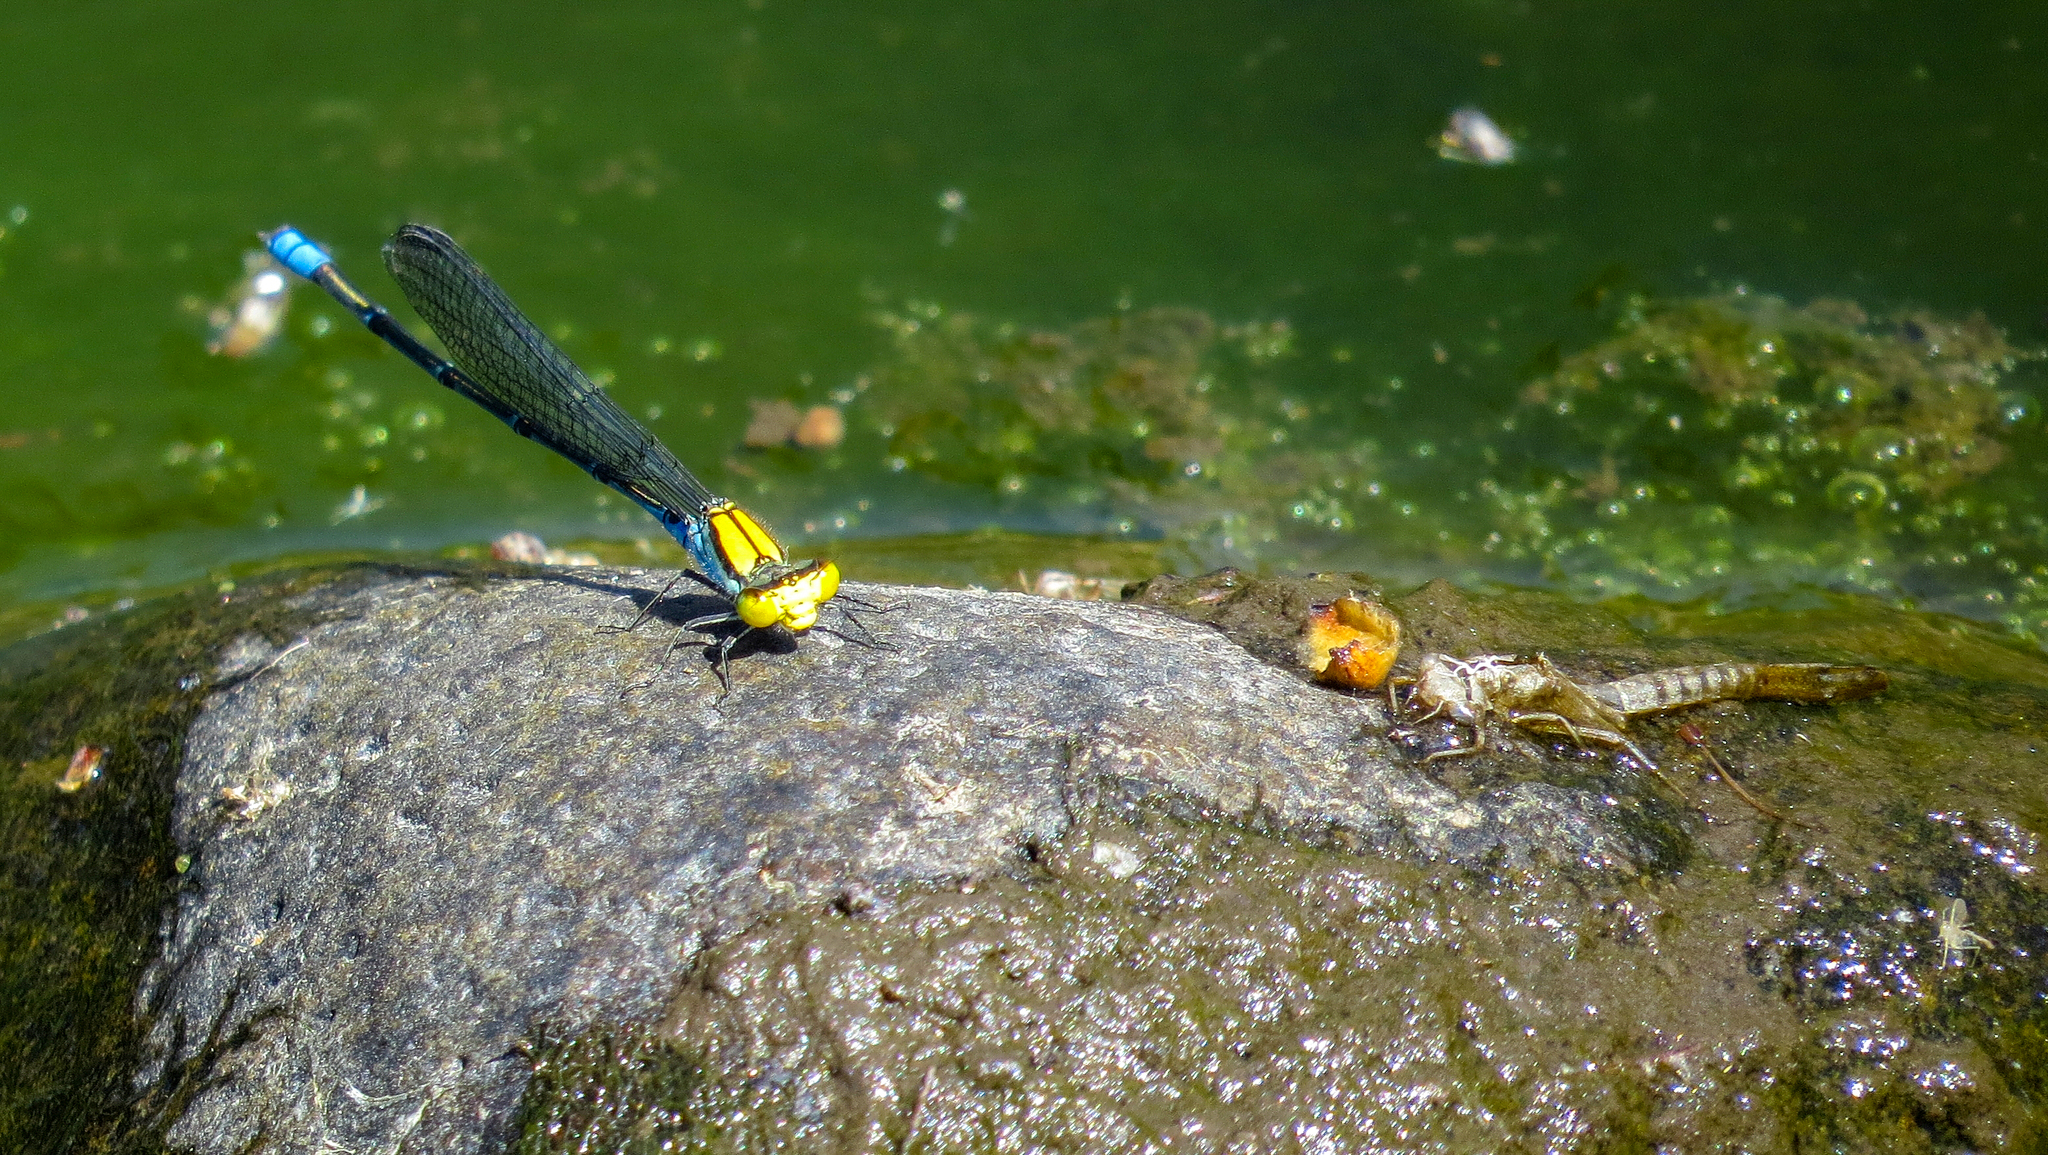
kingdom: Animalia
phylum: Arthropoda
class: Insecta
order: Odonata
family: Coenagrionidae
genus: Pseudagrion
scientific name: Pseudagrion aureofrons
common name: Gold-fronted riverdamsel
